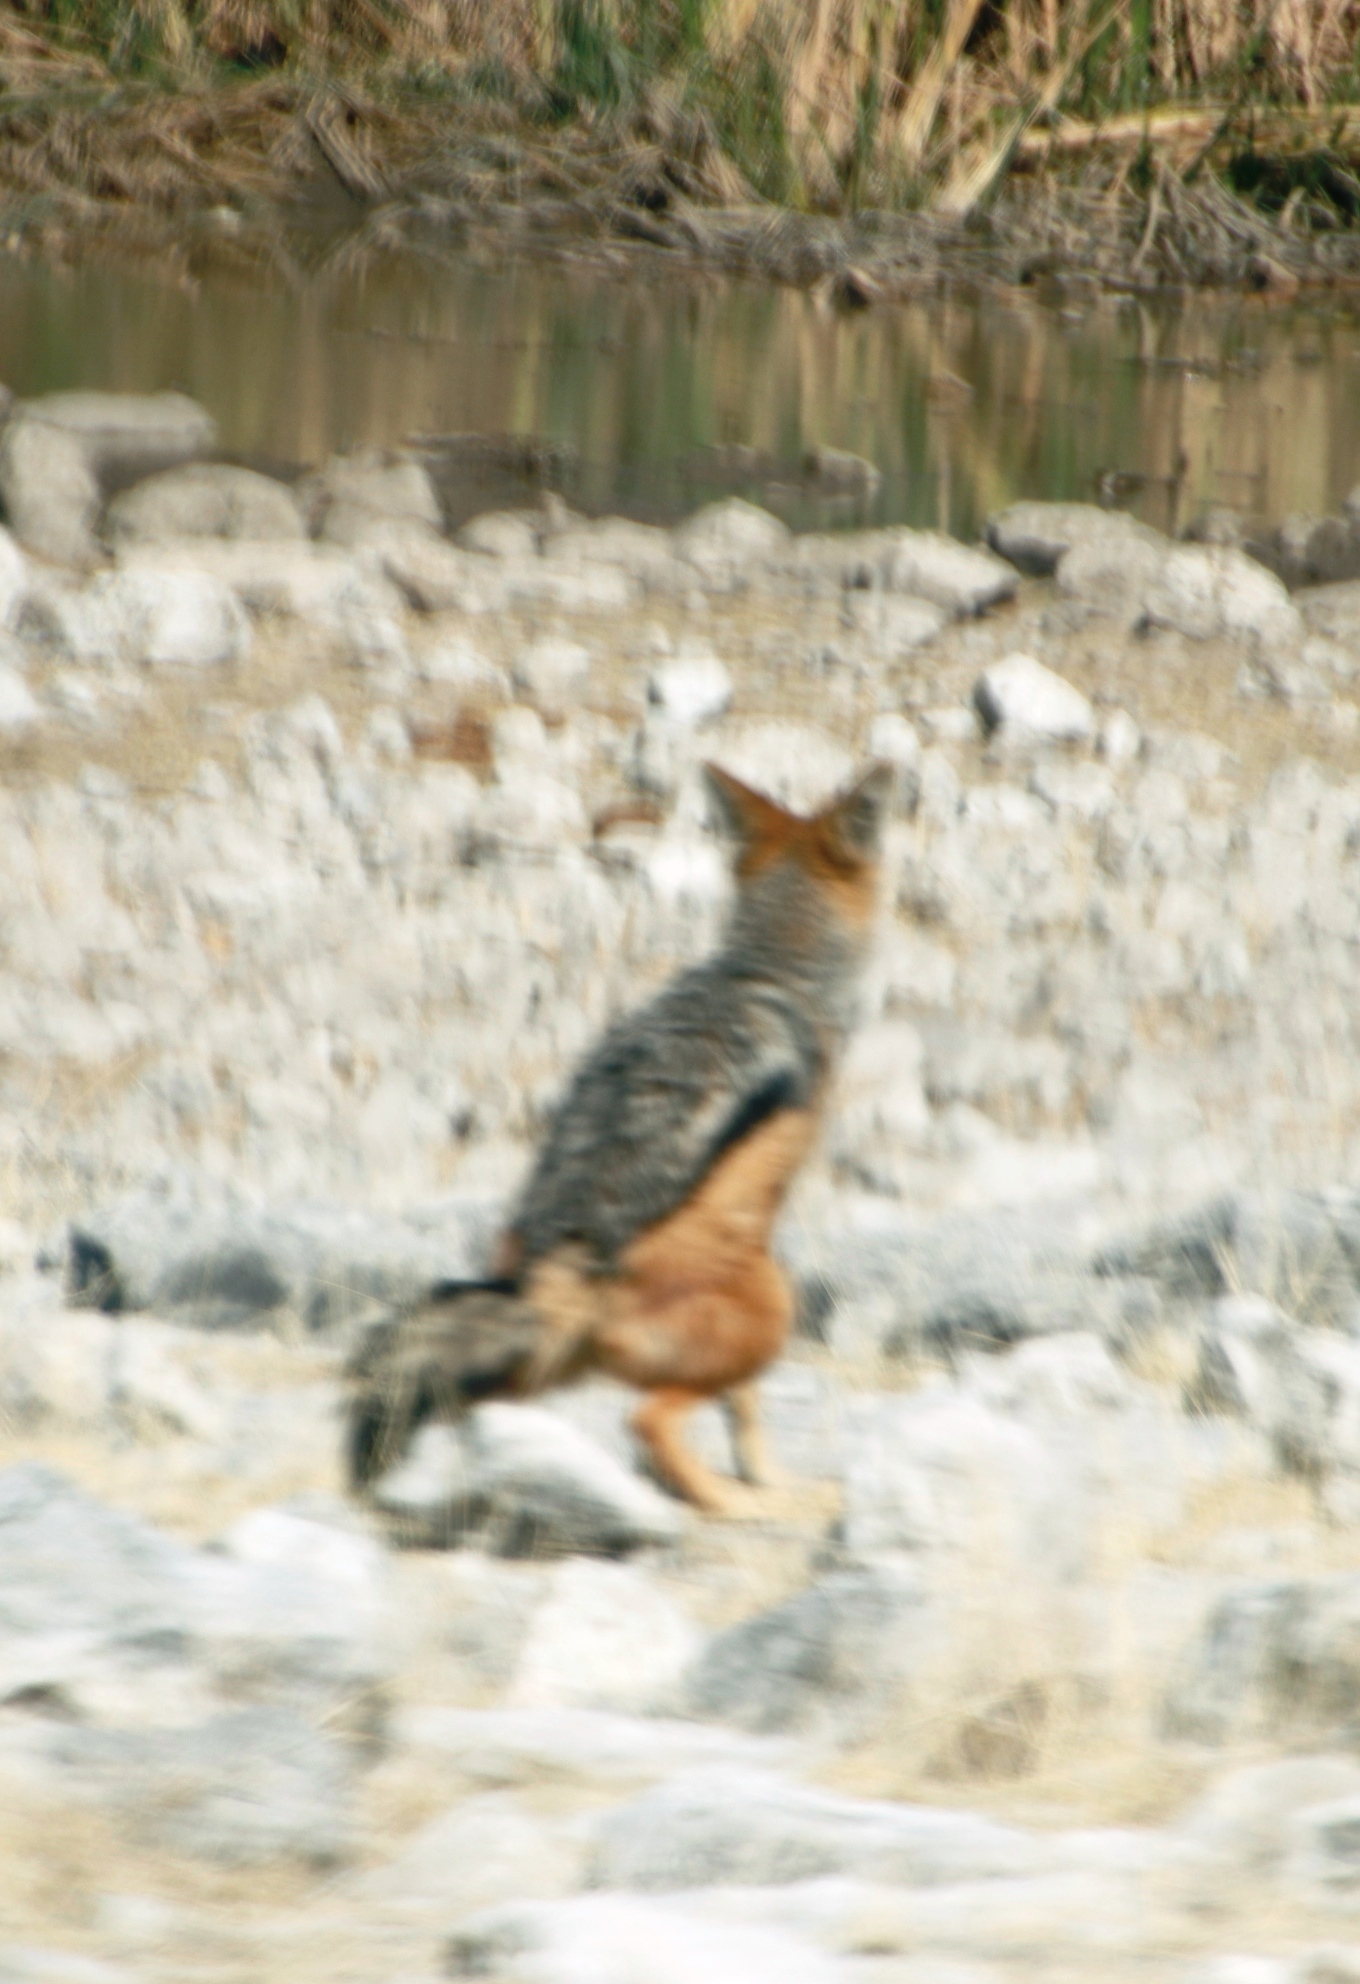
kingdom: Animalia
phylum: Chordata
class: Mammalia
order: Carnivora
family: Canidae
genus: Lupulella
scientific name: Lupulella
